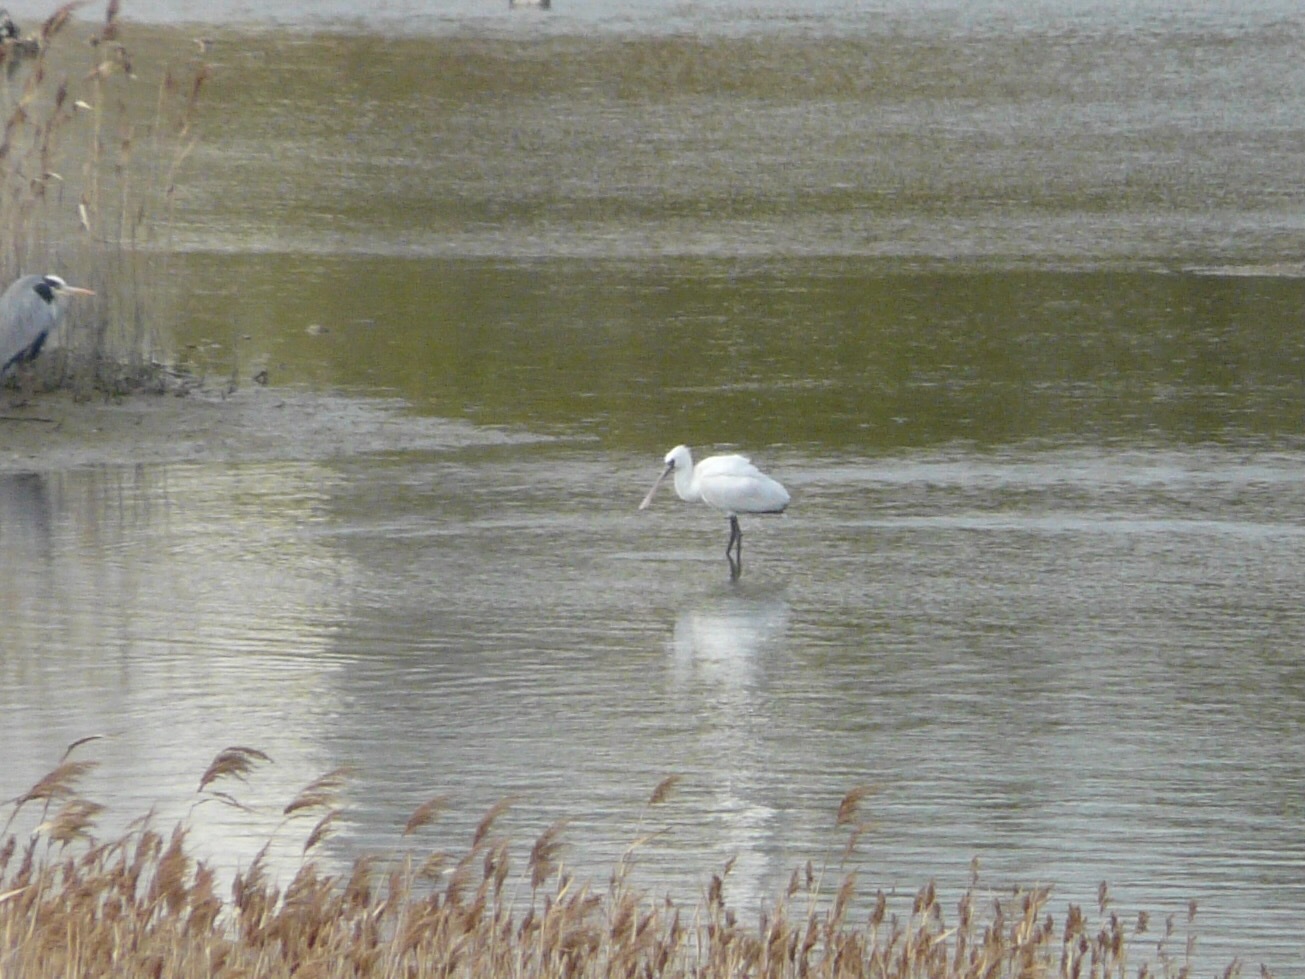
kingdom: Animalia
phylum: Chordata
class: Aves
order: Pelecaniformes
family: Threskiornithidae
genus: Platalea
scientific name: Platalea minor
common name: Black-faced spoonbill
